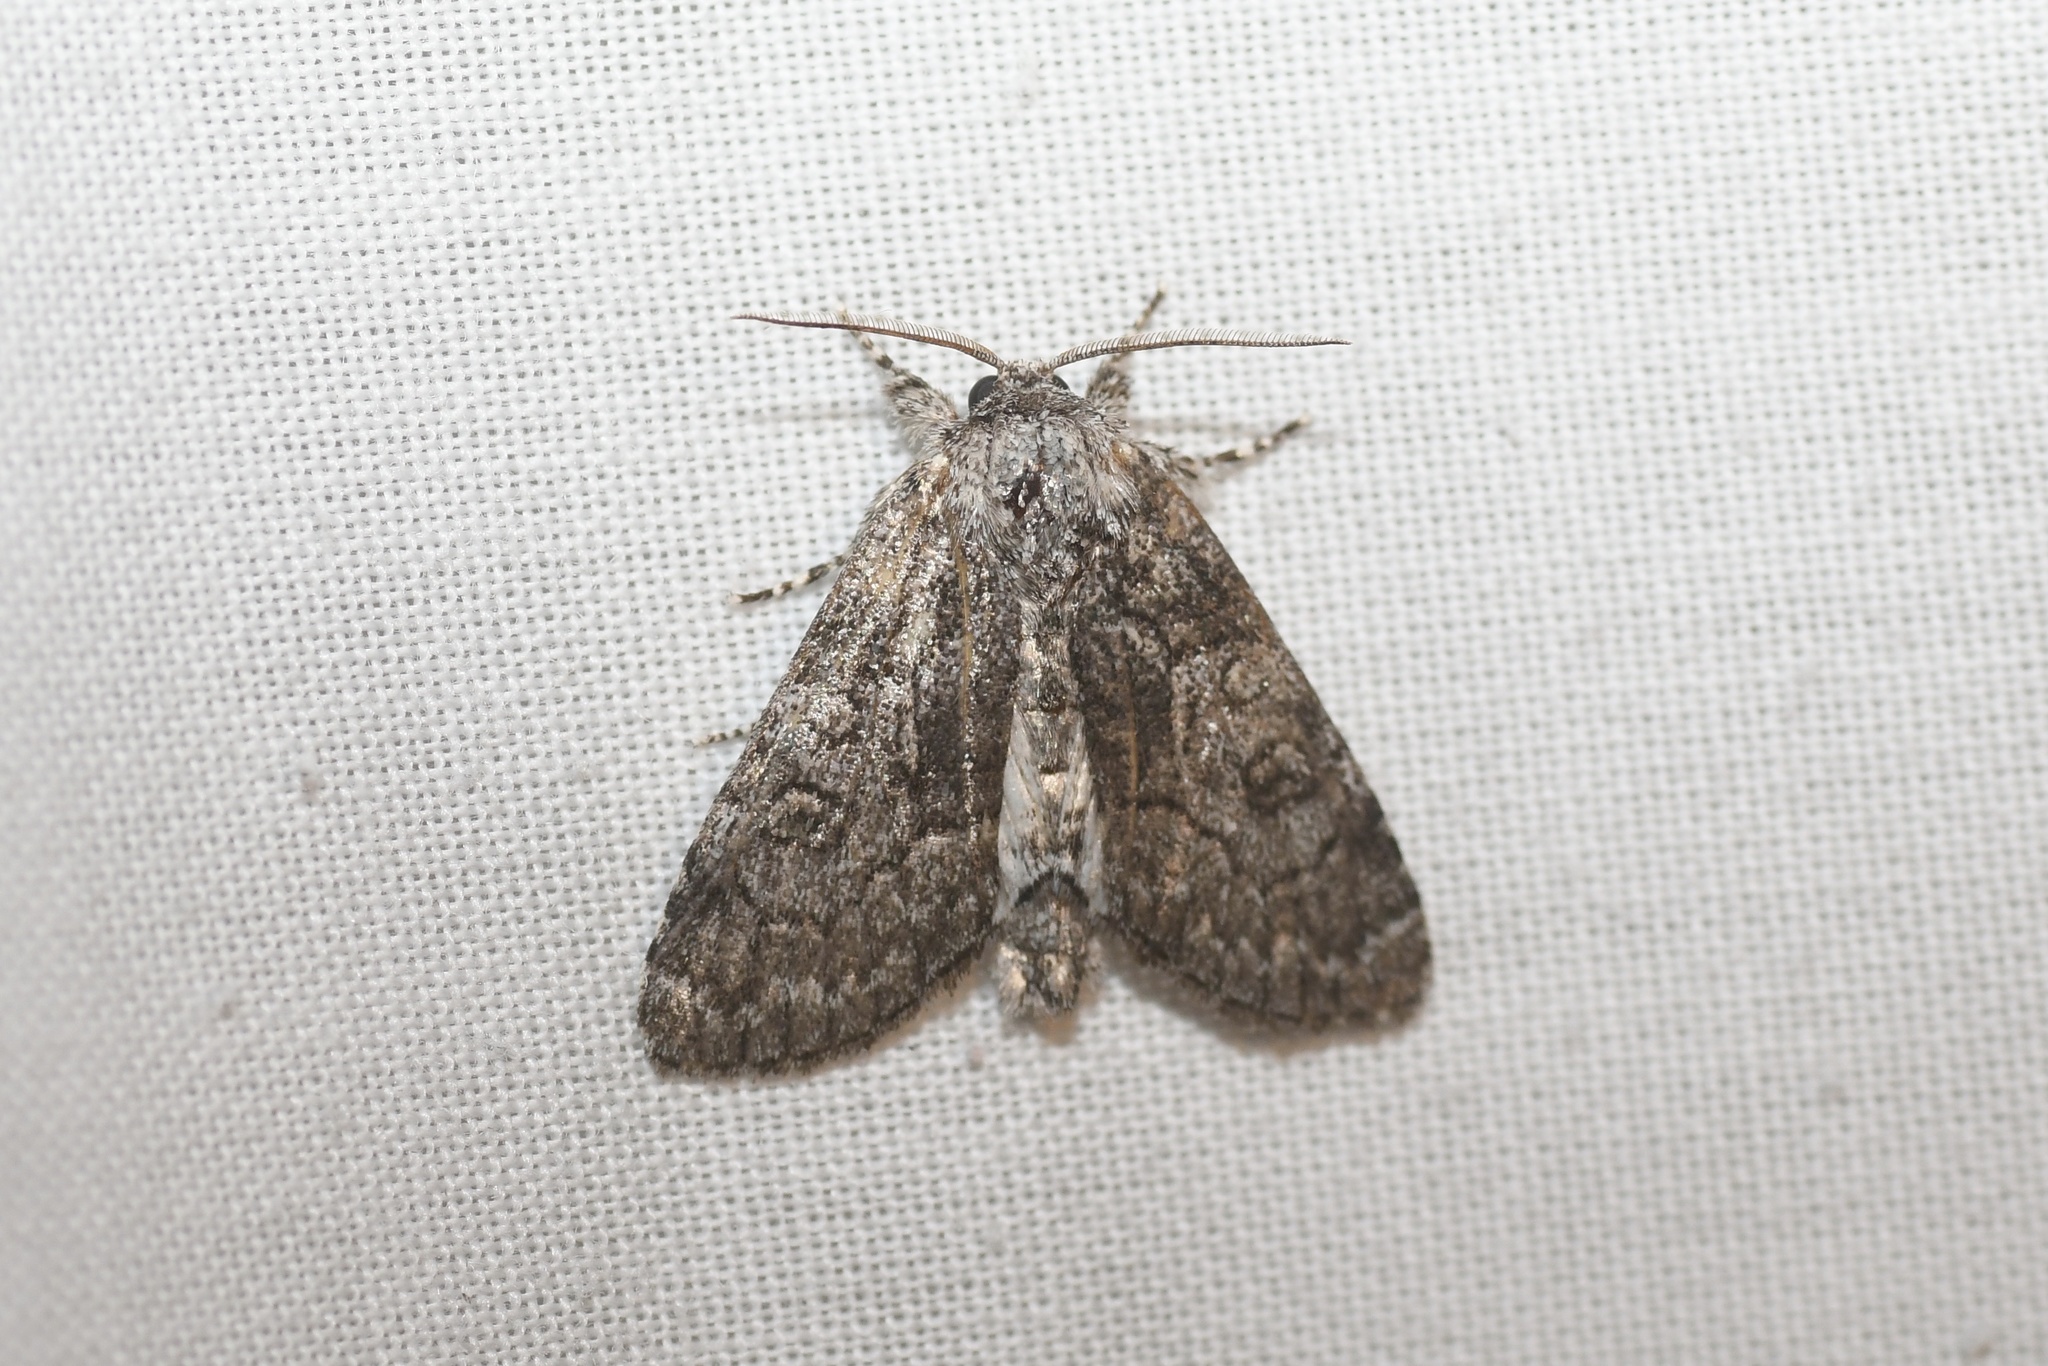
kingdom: Animalia
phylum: Arthropoda
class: Insecta
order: Lepidoptera
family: Noctuidae
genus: Raphia
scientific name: Raphia frater
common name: Brother
